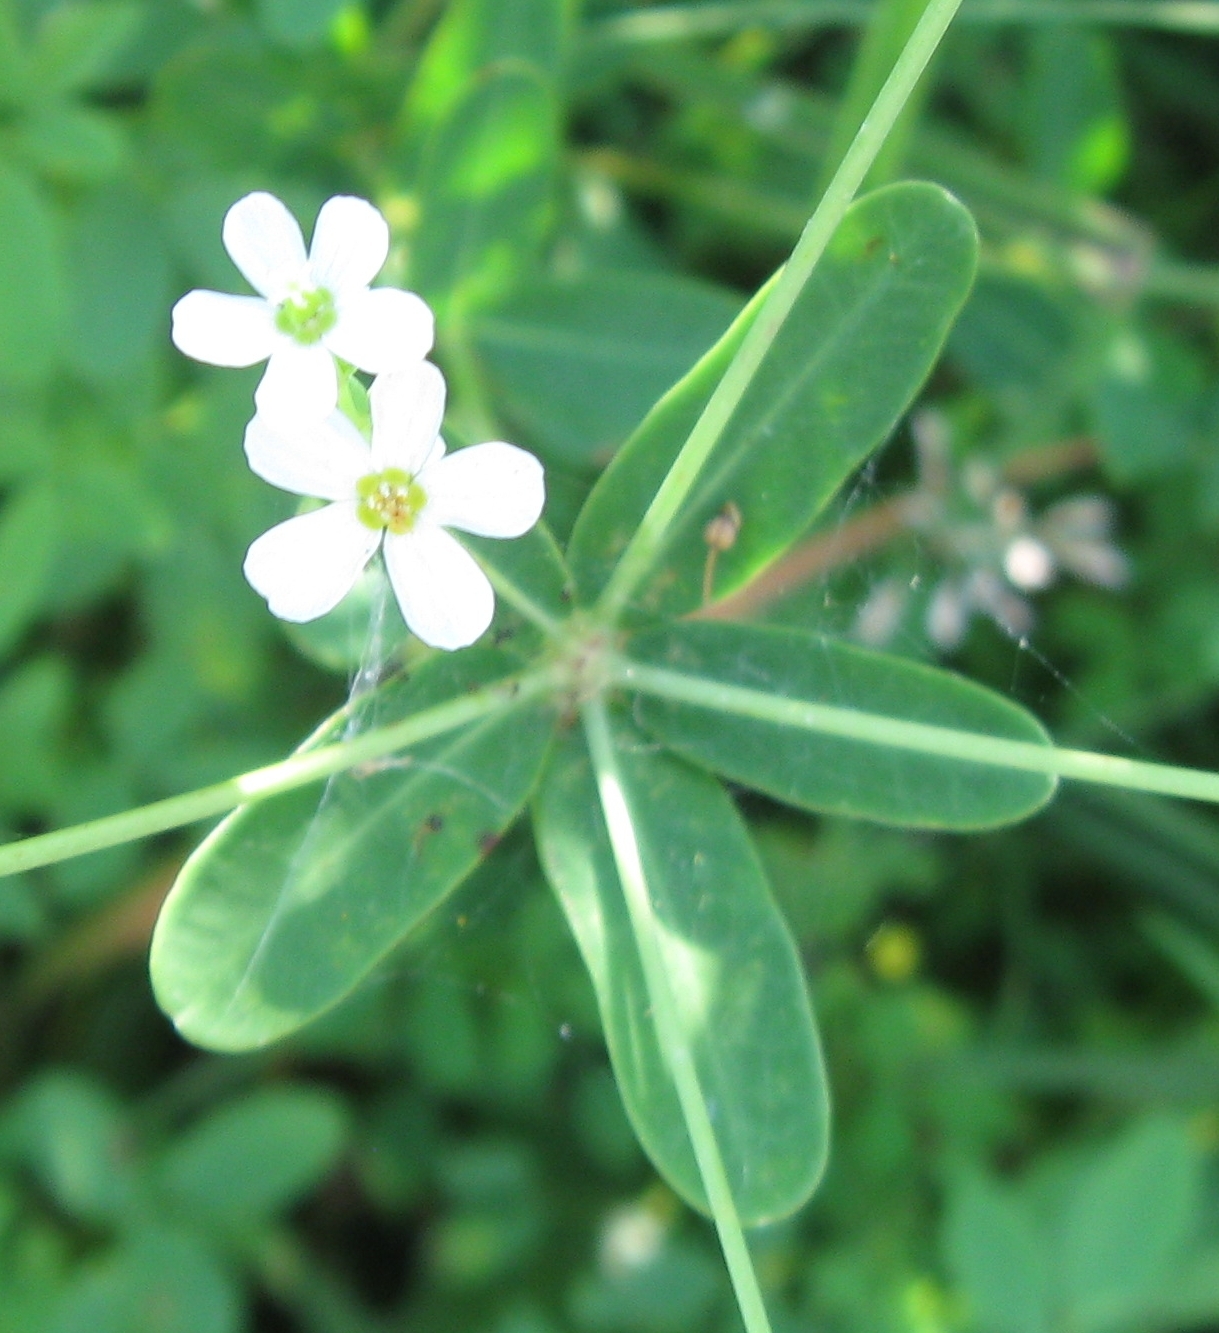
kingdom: Plantae
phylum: Tracheophyta
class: Magnoliopsida
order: Malpighiales
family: Euphorbiaceae
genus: Euphorbia
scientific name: Euphorbia corollata
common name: Flowering spurge
